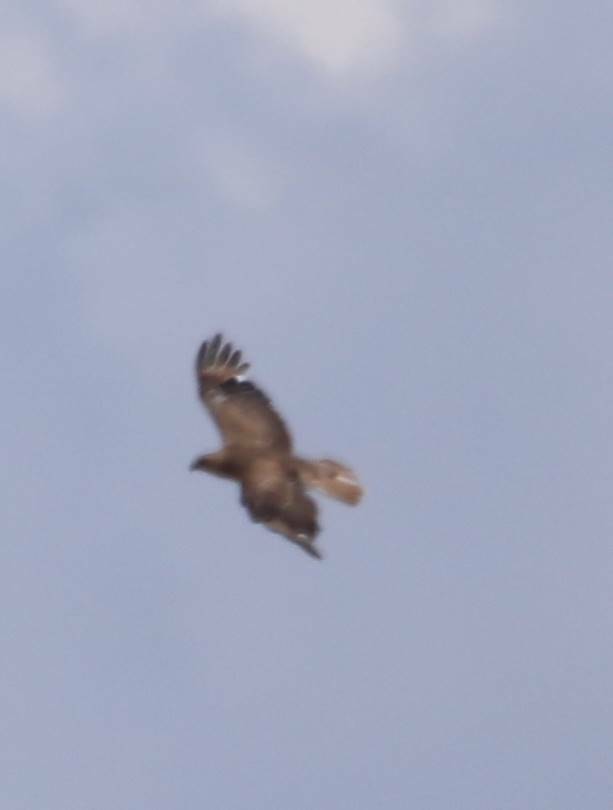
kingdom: Animalia
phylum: Chordata
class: Aves
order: Accipitriformes
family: Accipitridae
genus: Buteo
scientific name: Buteo rufinus
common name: Long-legged buzzard
